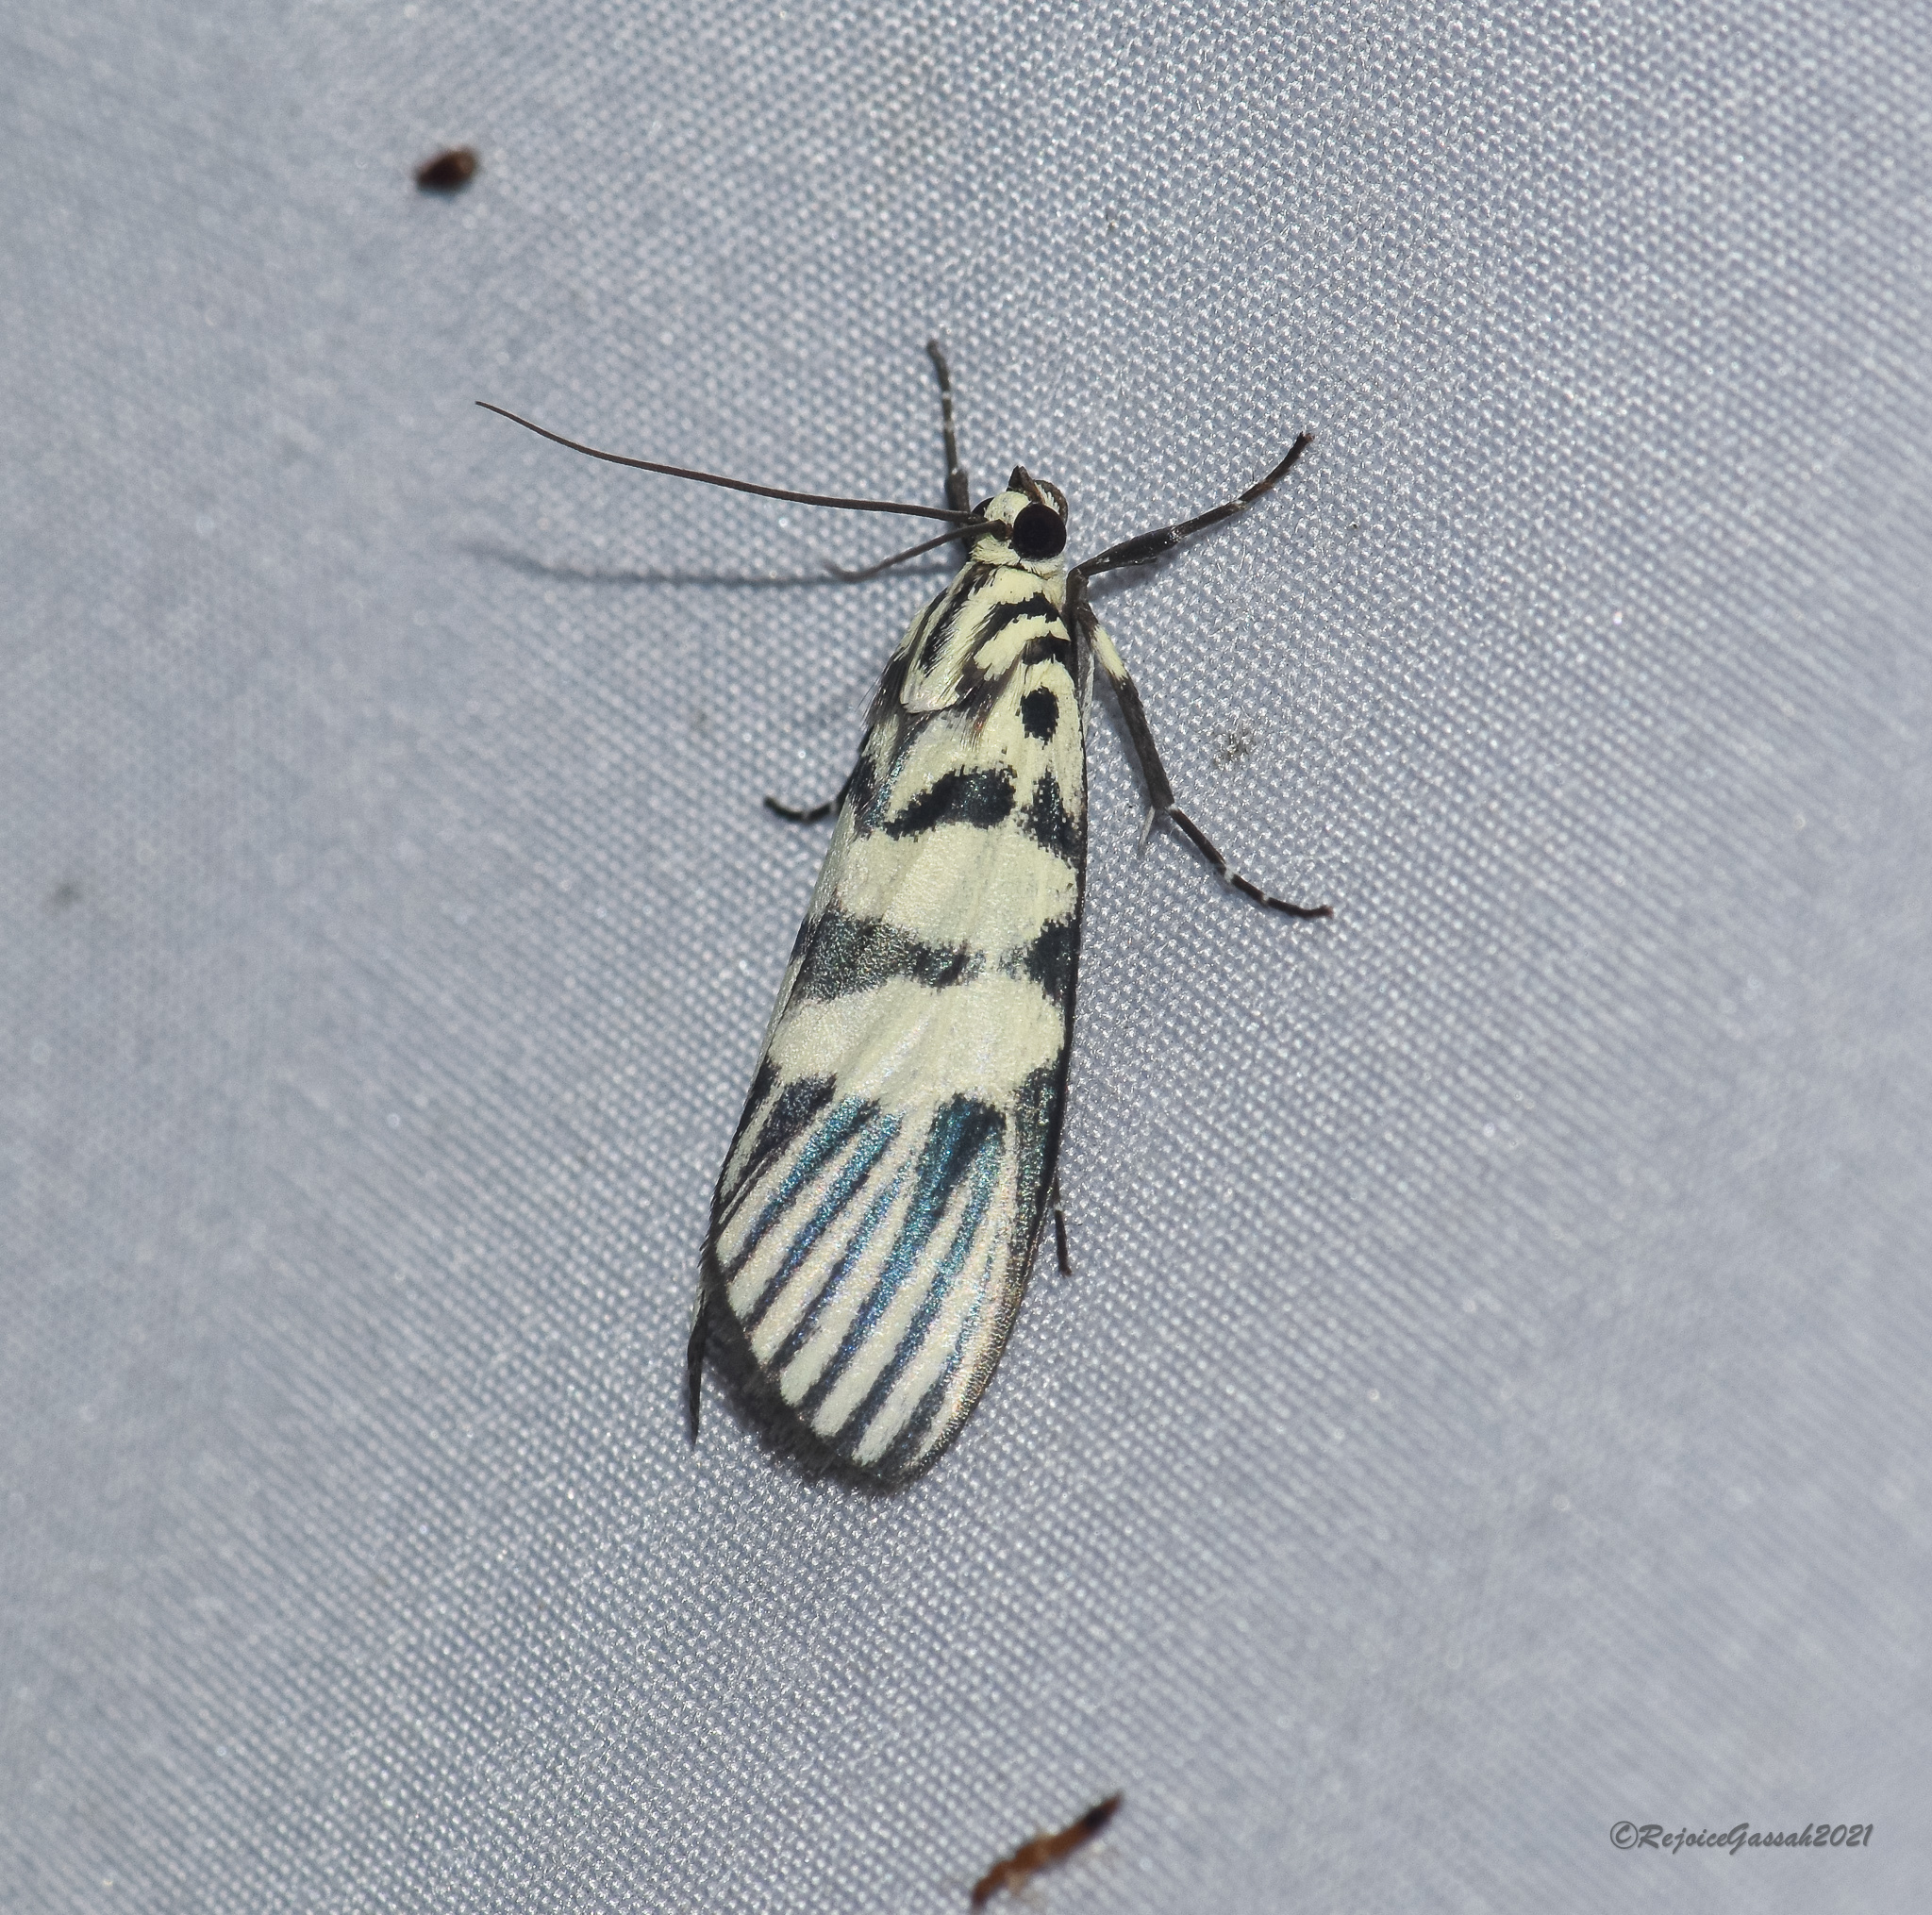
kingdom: Animalia
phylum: Arthropoda
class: Insecta
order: Lepidoptera
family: Crambidae
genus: Heortia
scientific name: Heortia vitessoides
